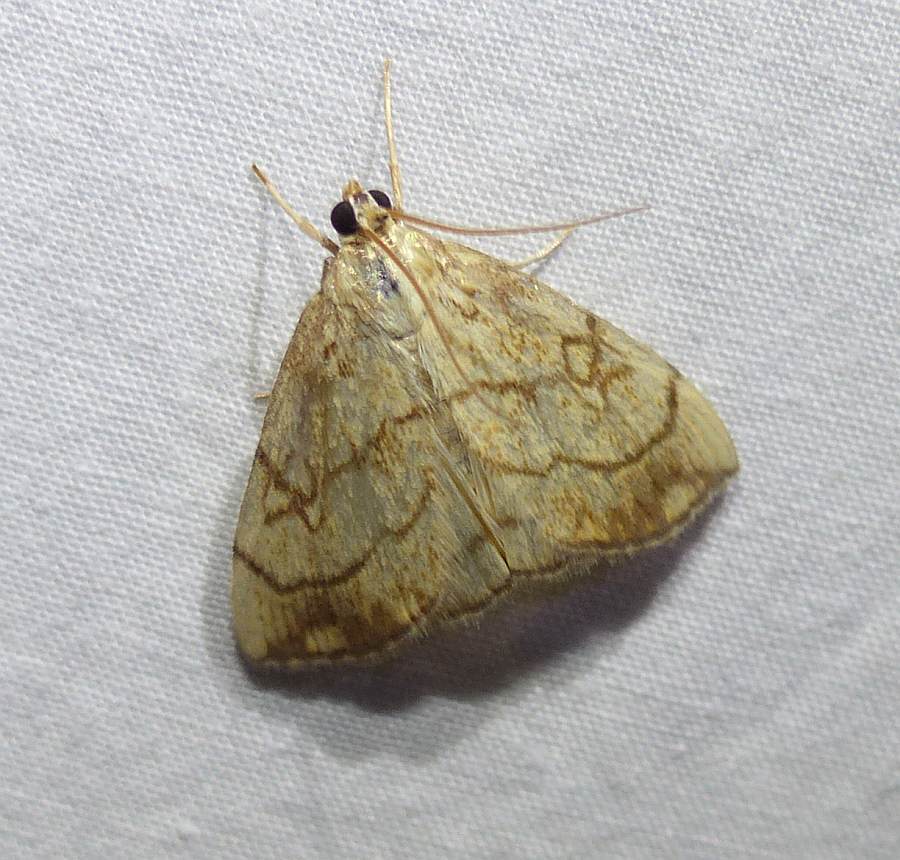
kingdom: Animalia
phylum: Arthropoda
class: Insecta
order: Lepidoptera
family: Crambidae
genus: Evergestis
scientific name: Evergestis pallidata
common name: Chequered pearl
